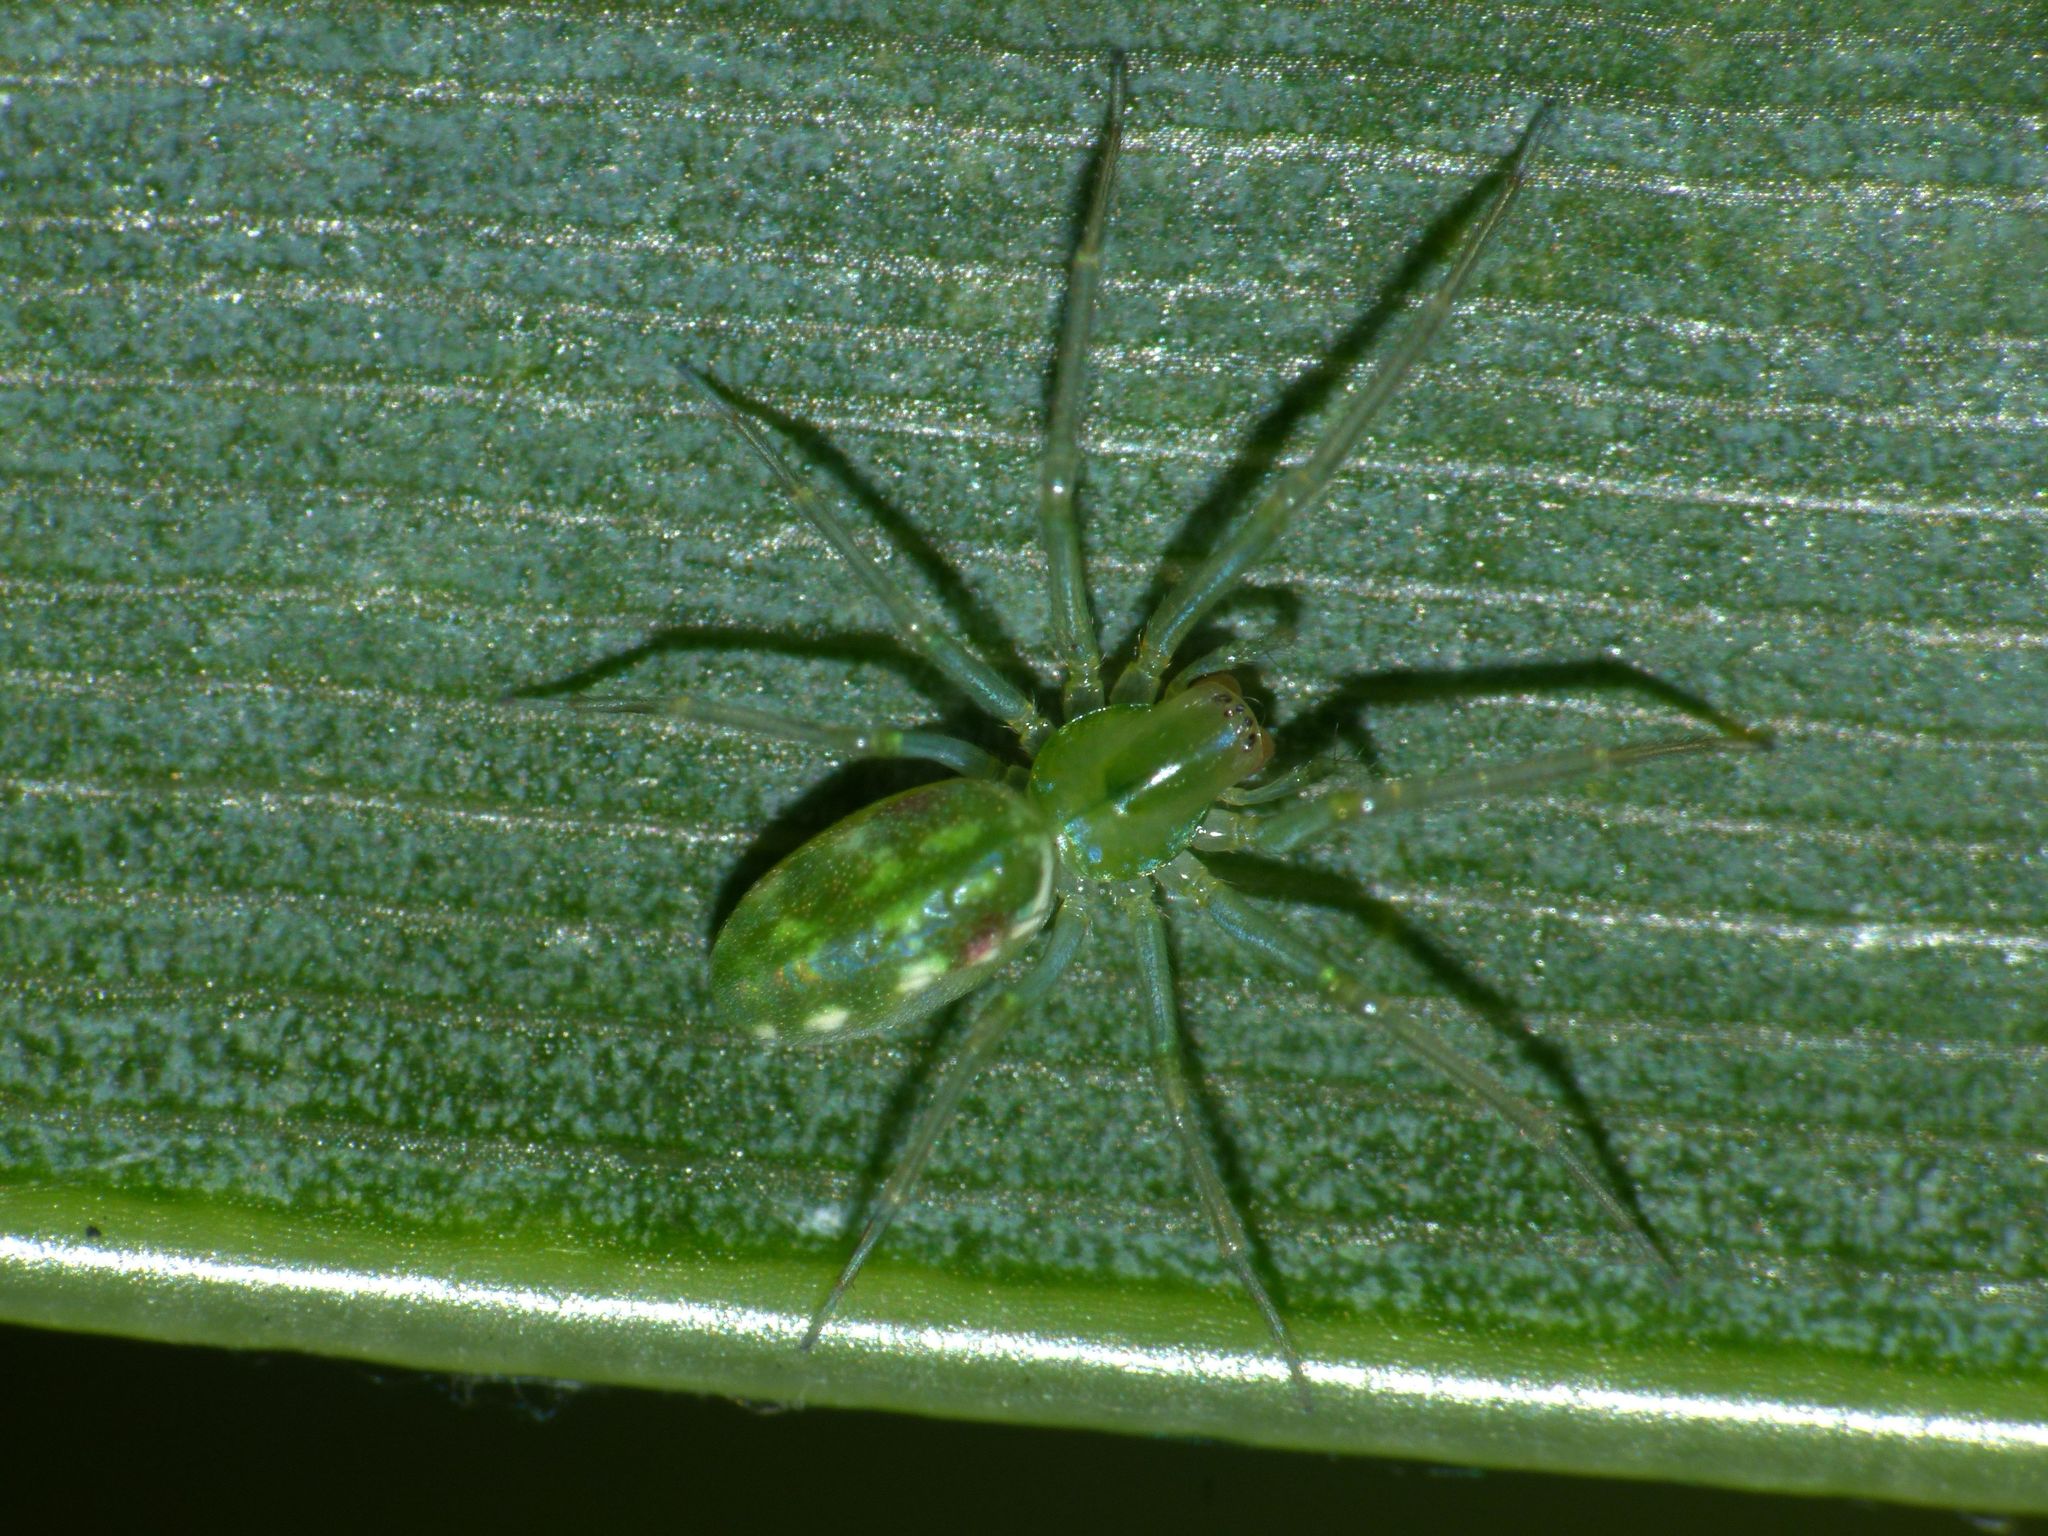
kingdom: Animalia
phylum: Arthropoda
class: Arachnida
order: Araneae
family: Dictynidae
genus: Paradictyna
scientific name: Paradictyna ilamia
